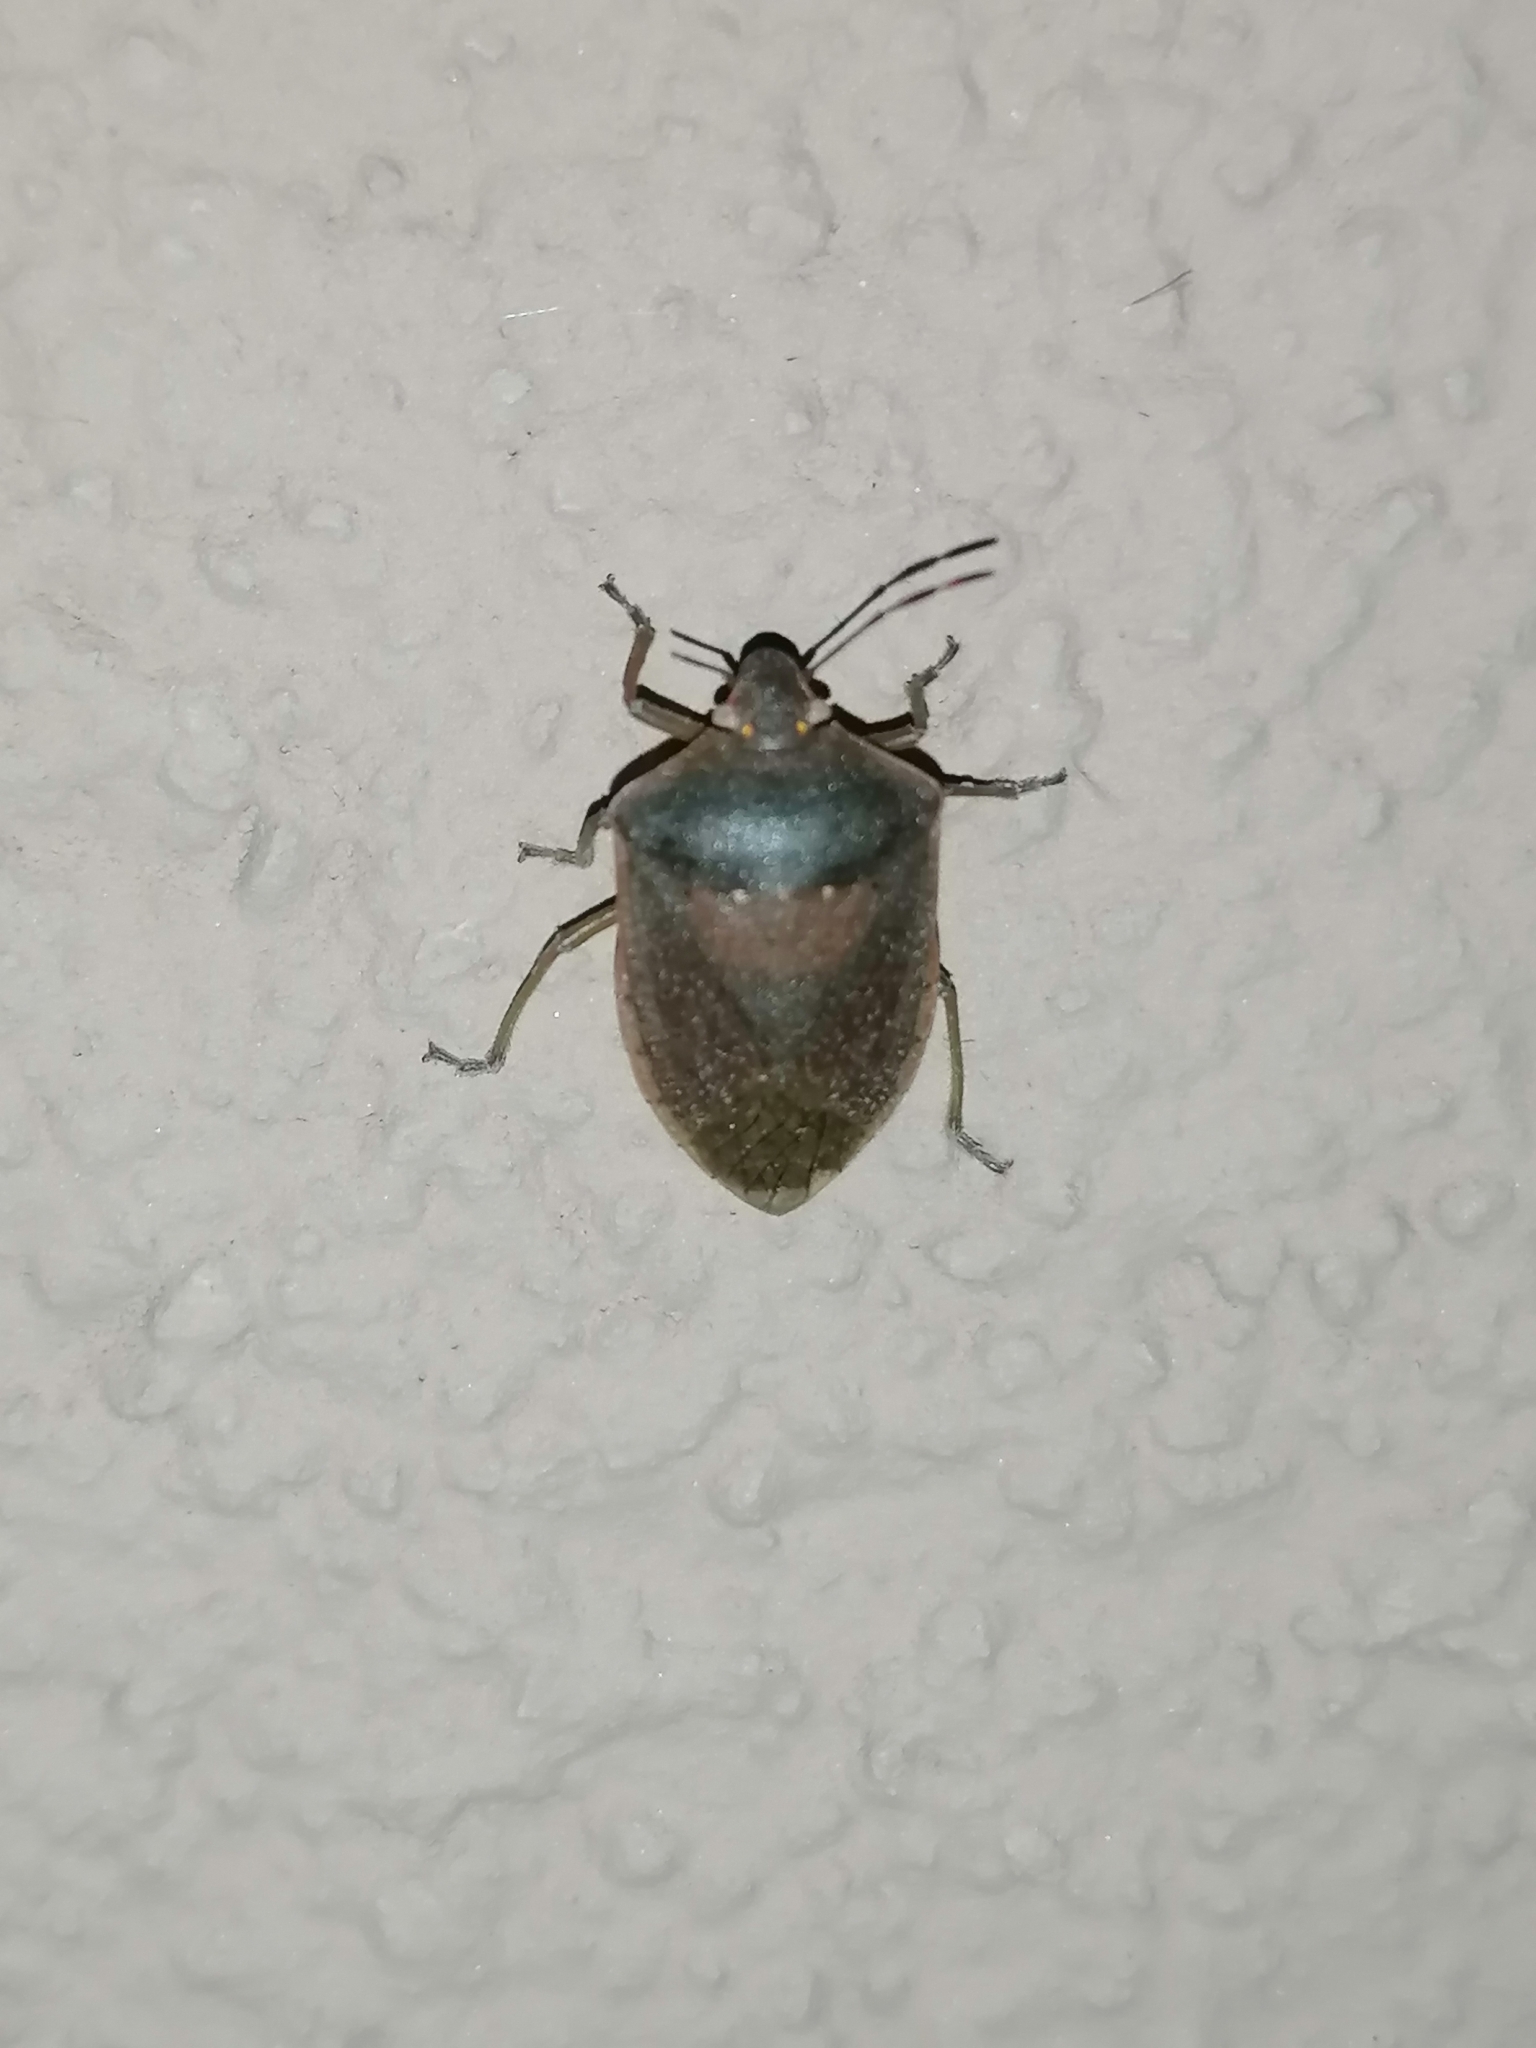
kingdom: Animalia
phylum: Arthropoda
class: Insecta
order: Hemiptera
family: Pentatomidae
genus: Nezara
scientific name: Nezara viridula
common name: Southern green stink bug
